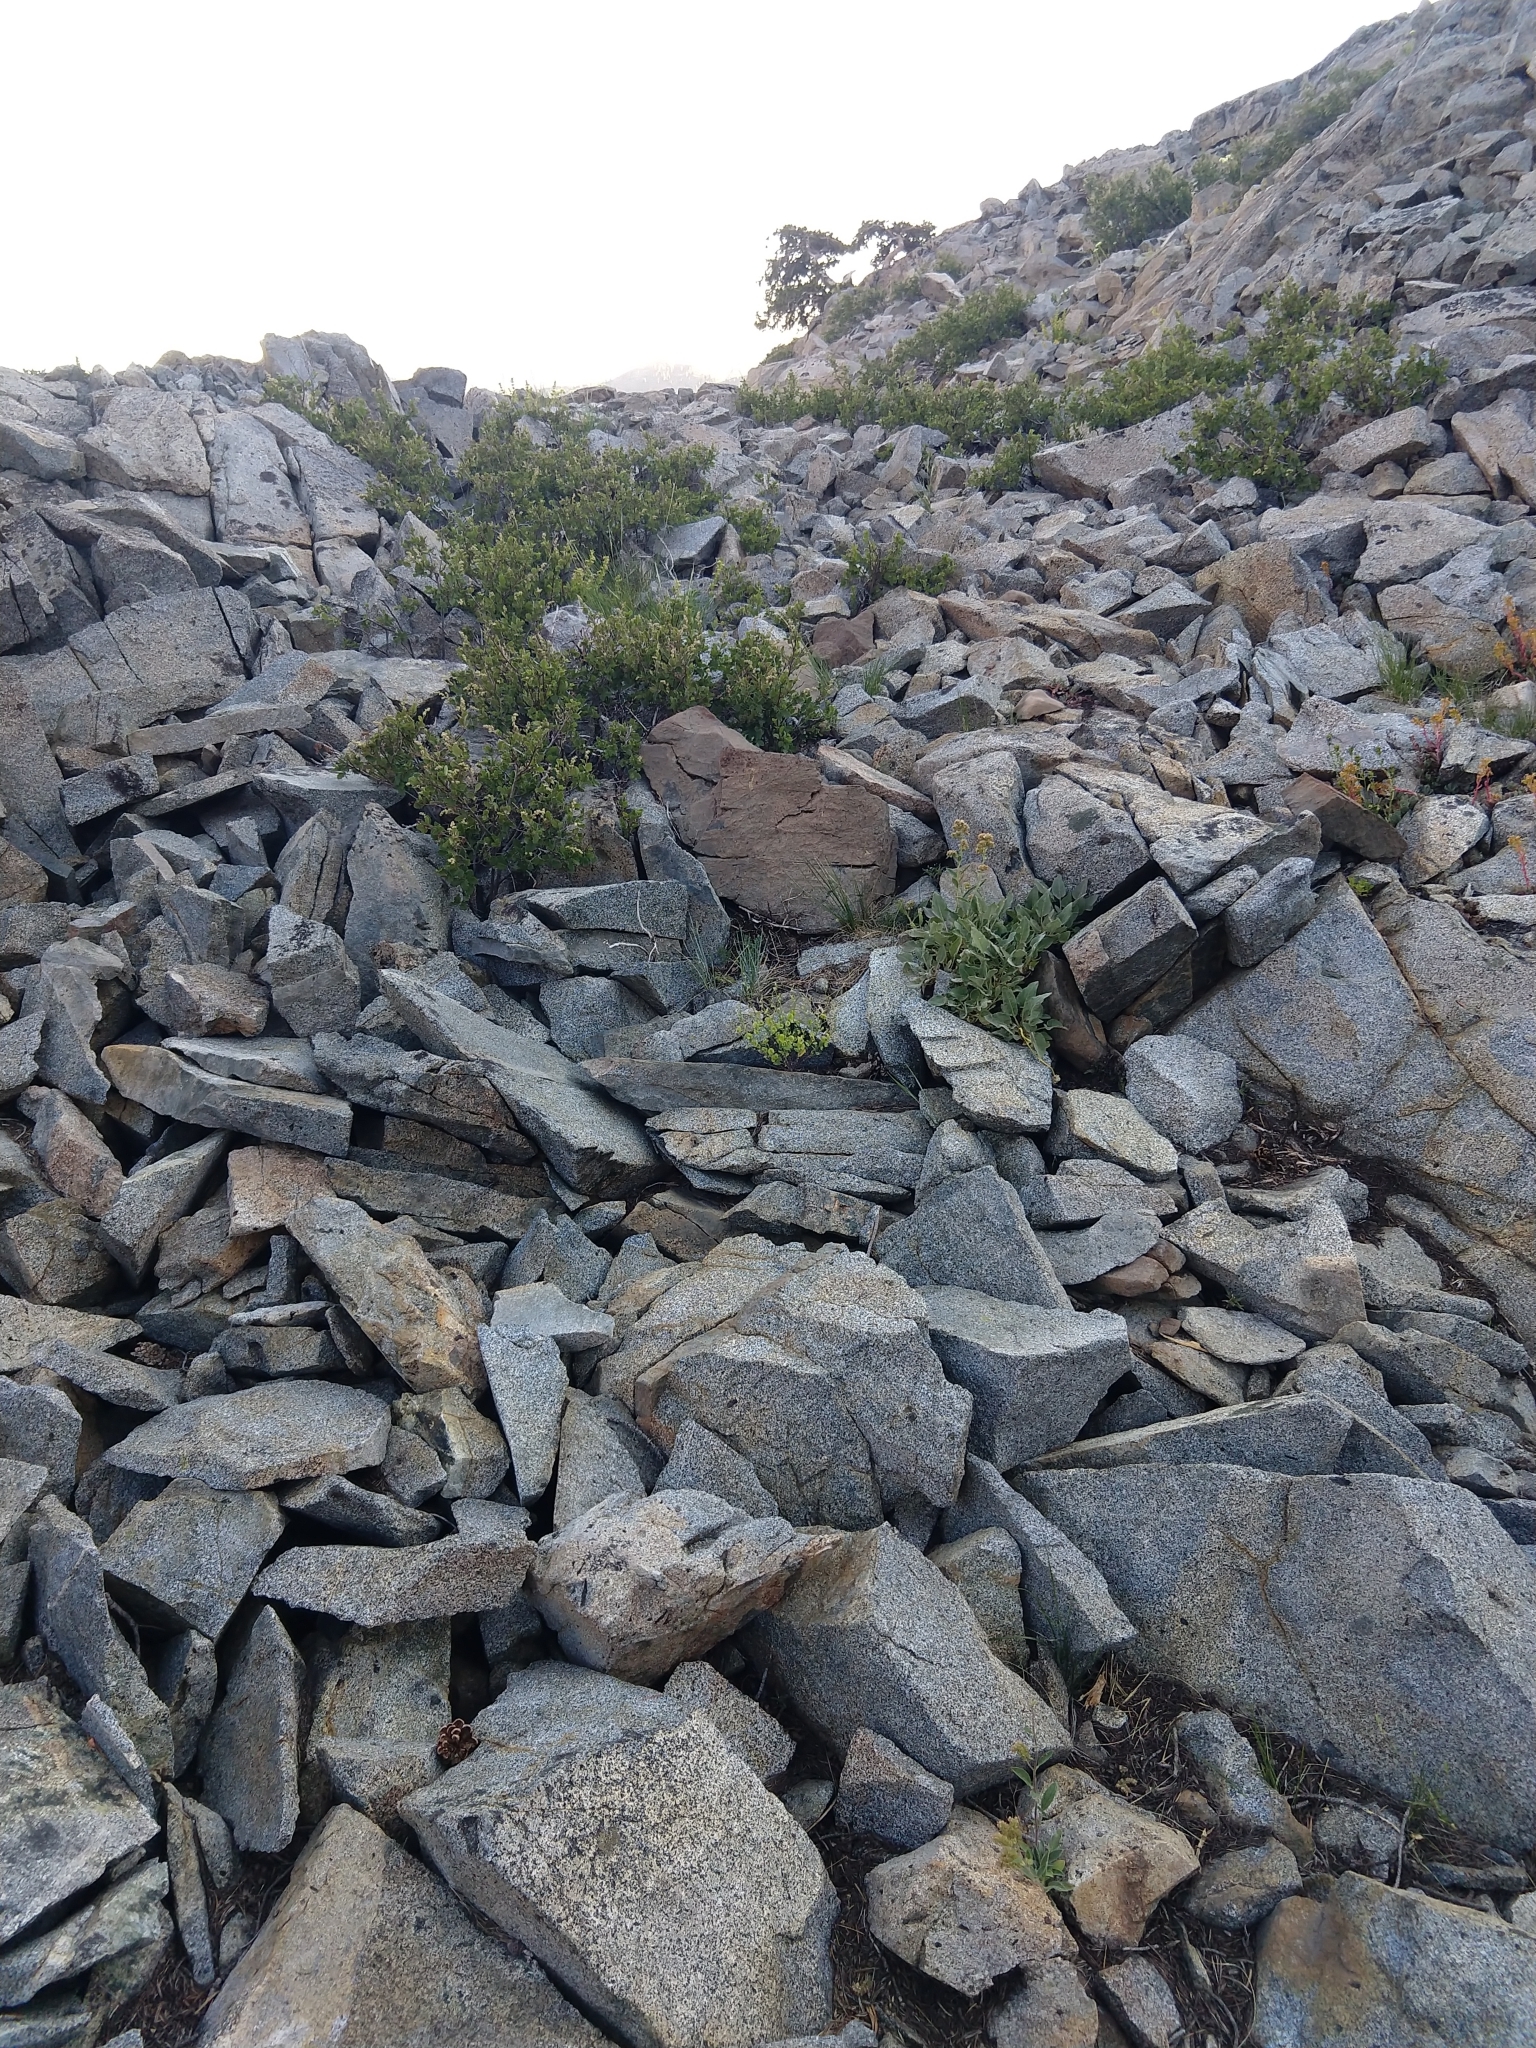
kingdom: Plantae
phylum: Tracheophyta
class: Magnoliopsida
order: Brassicales
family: Brassicaceae
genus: Streptanthus
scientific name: Streptanthus tortuosus
